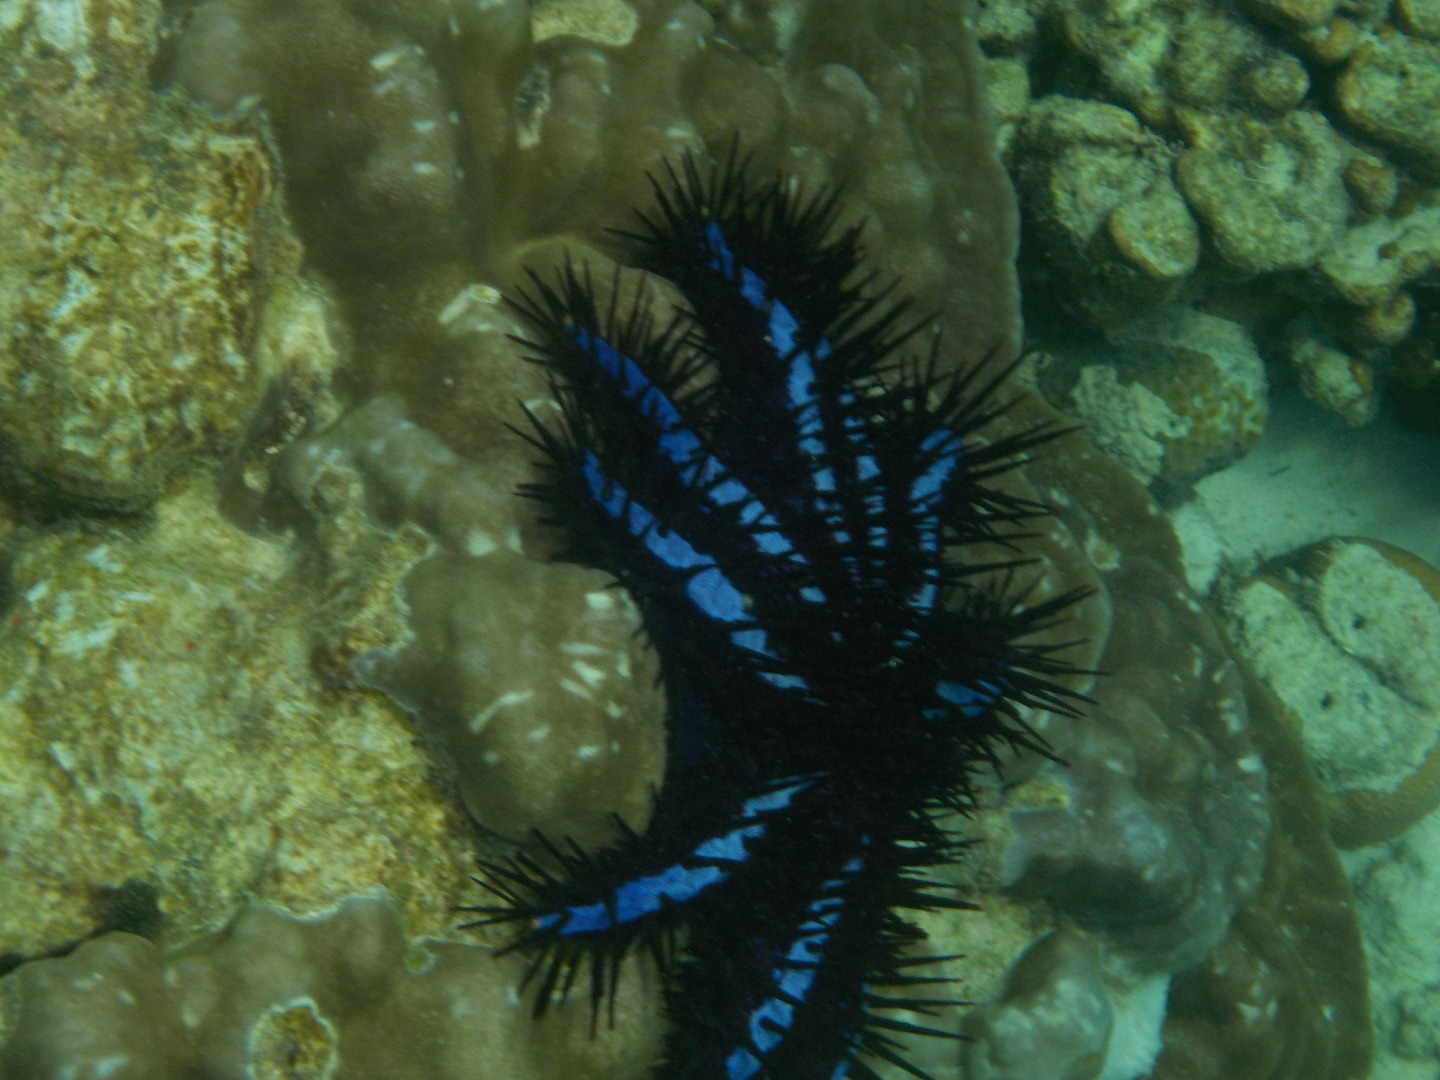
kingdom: Animalia
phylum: Echinodermata
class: Asteroidea
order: Valvatida
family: Acanthasteridae
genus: Acanthaster
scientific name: Acanthaster planci
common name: Crown-of-thorns
